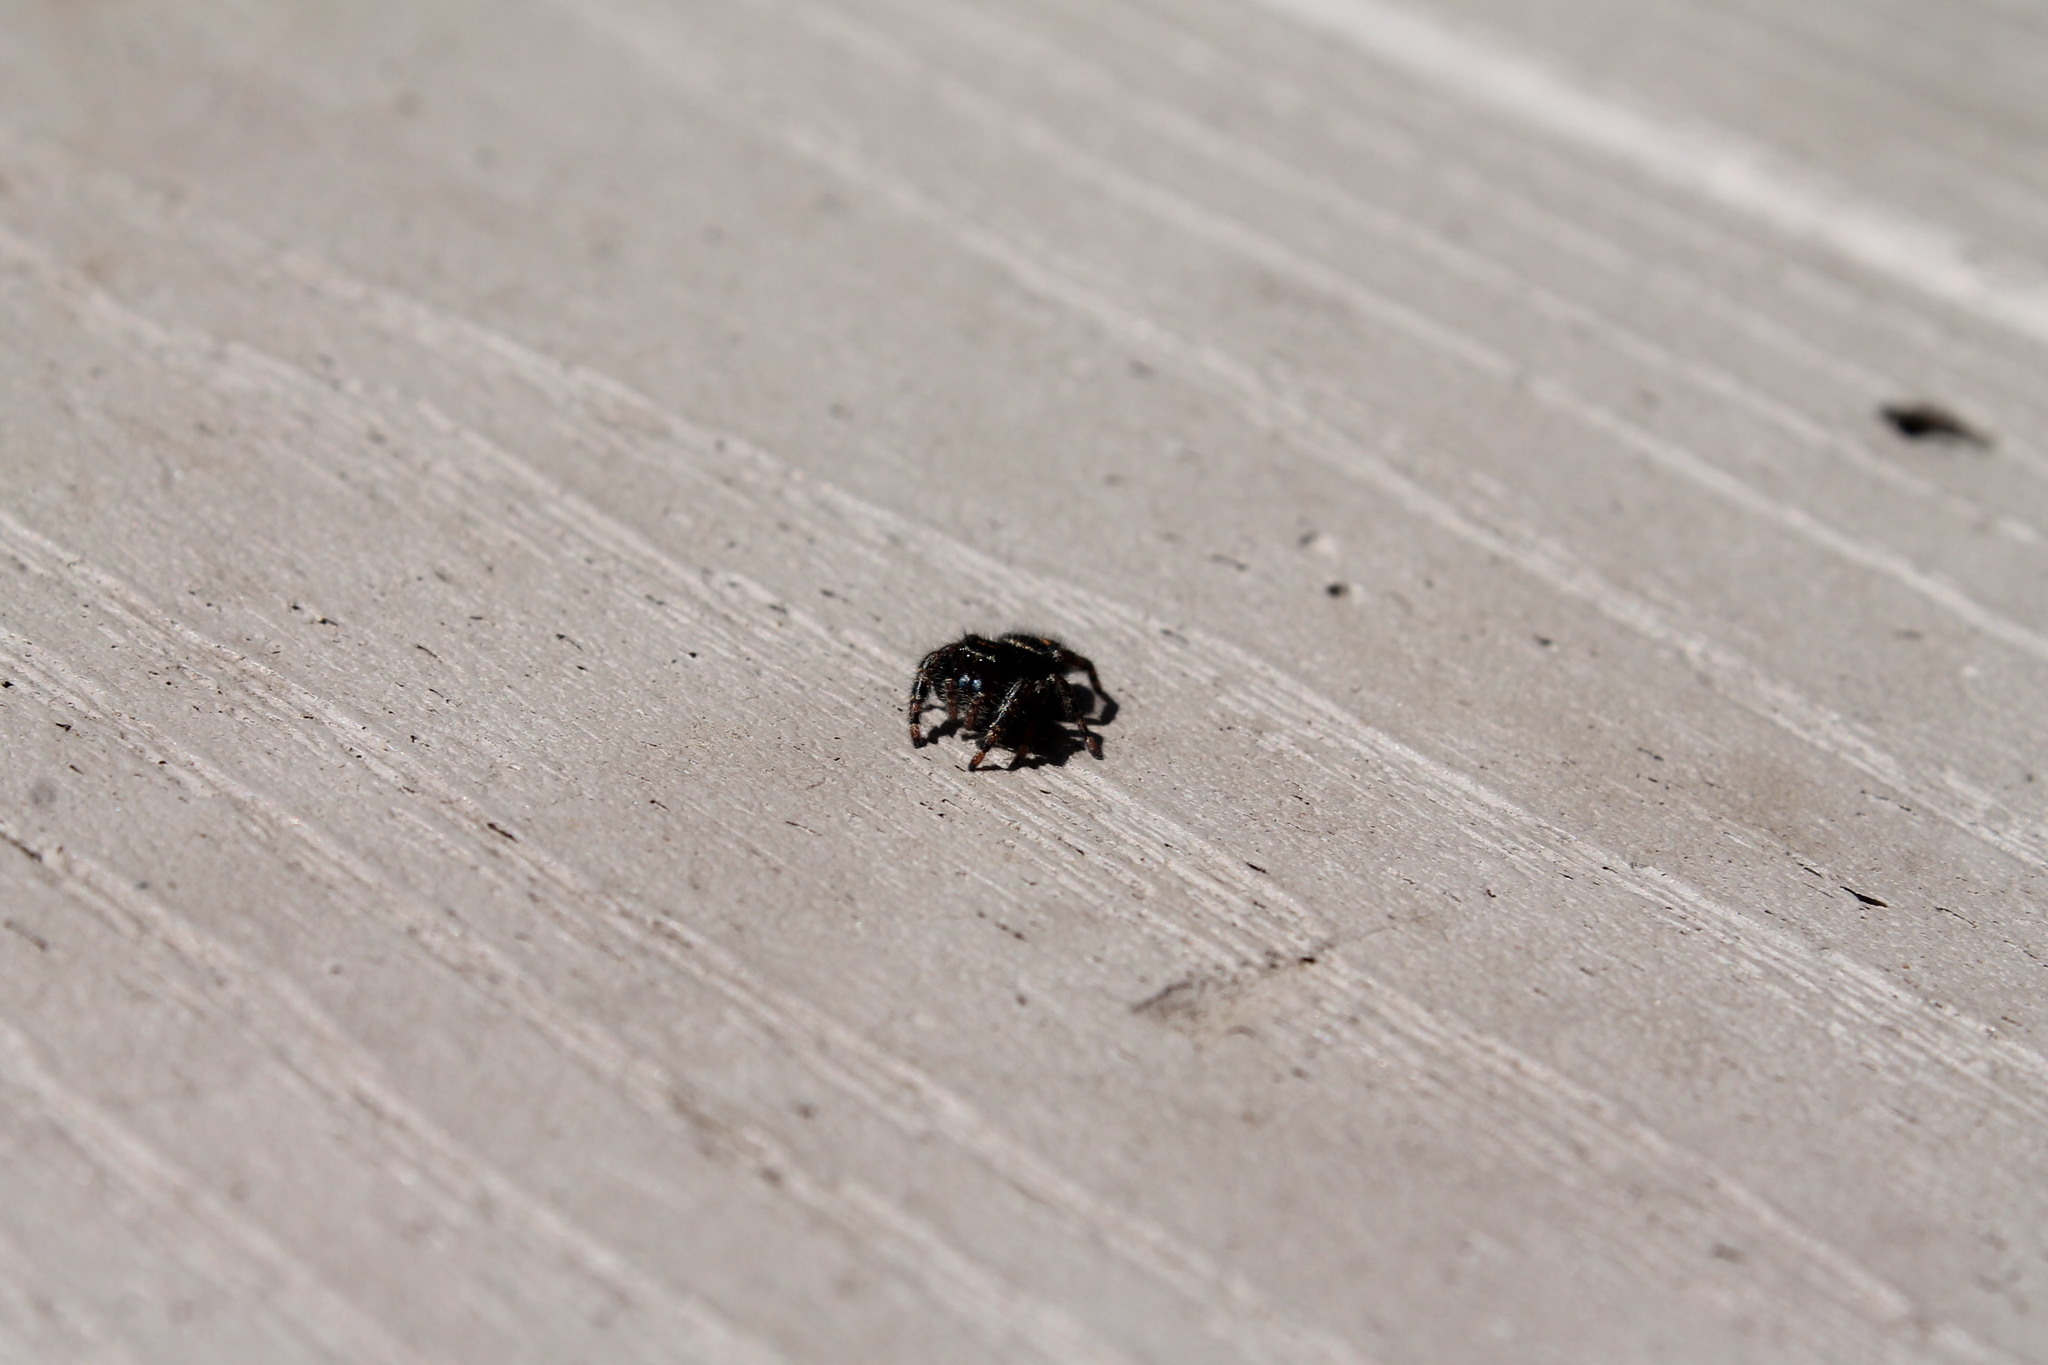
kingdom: Animalia
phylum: Arthropoda
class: Arachnida
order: Araneae
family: Salticidae
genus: Phidippus
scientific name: Phidippus audax
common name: Bold jumper
